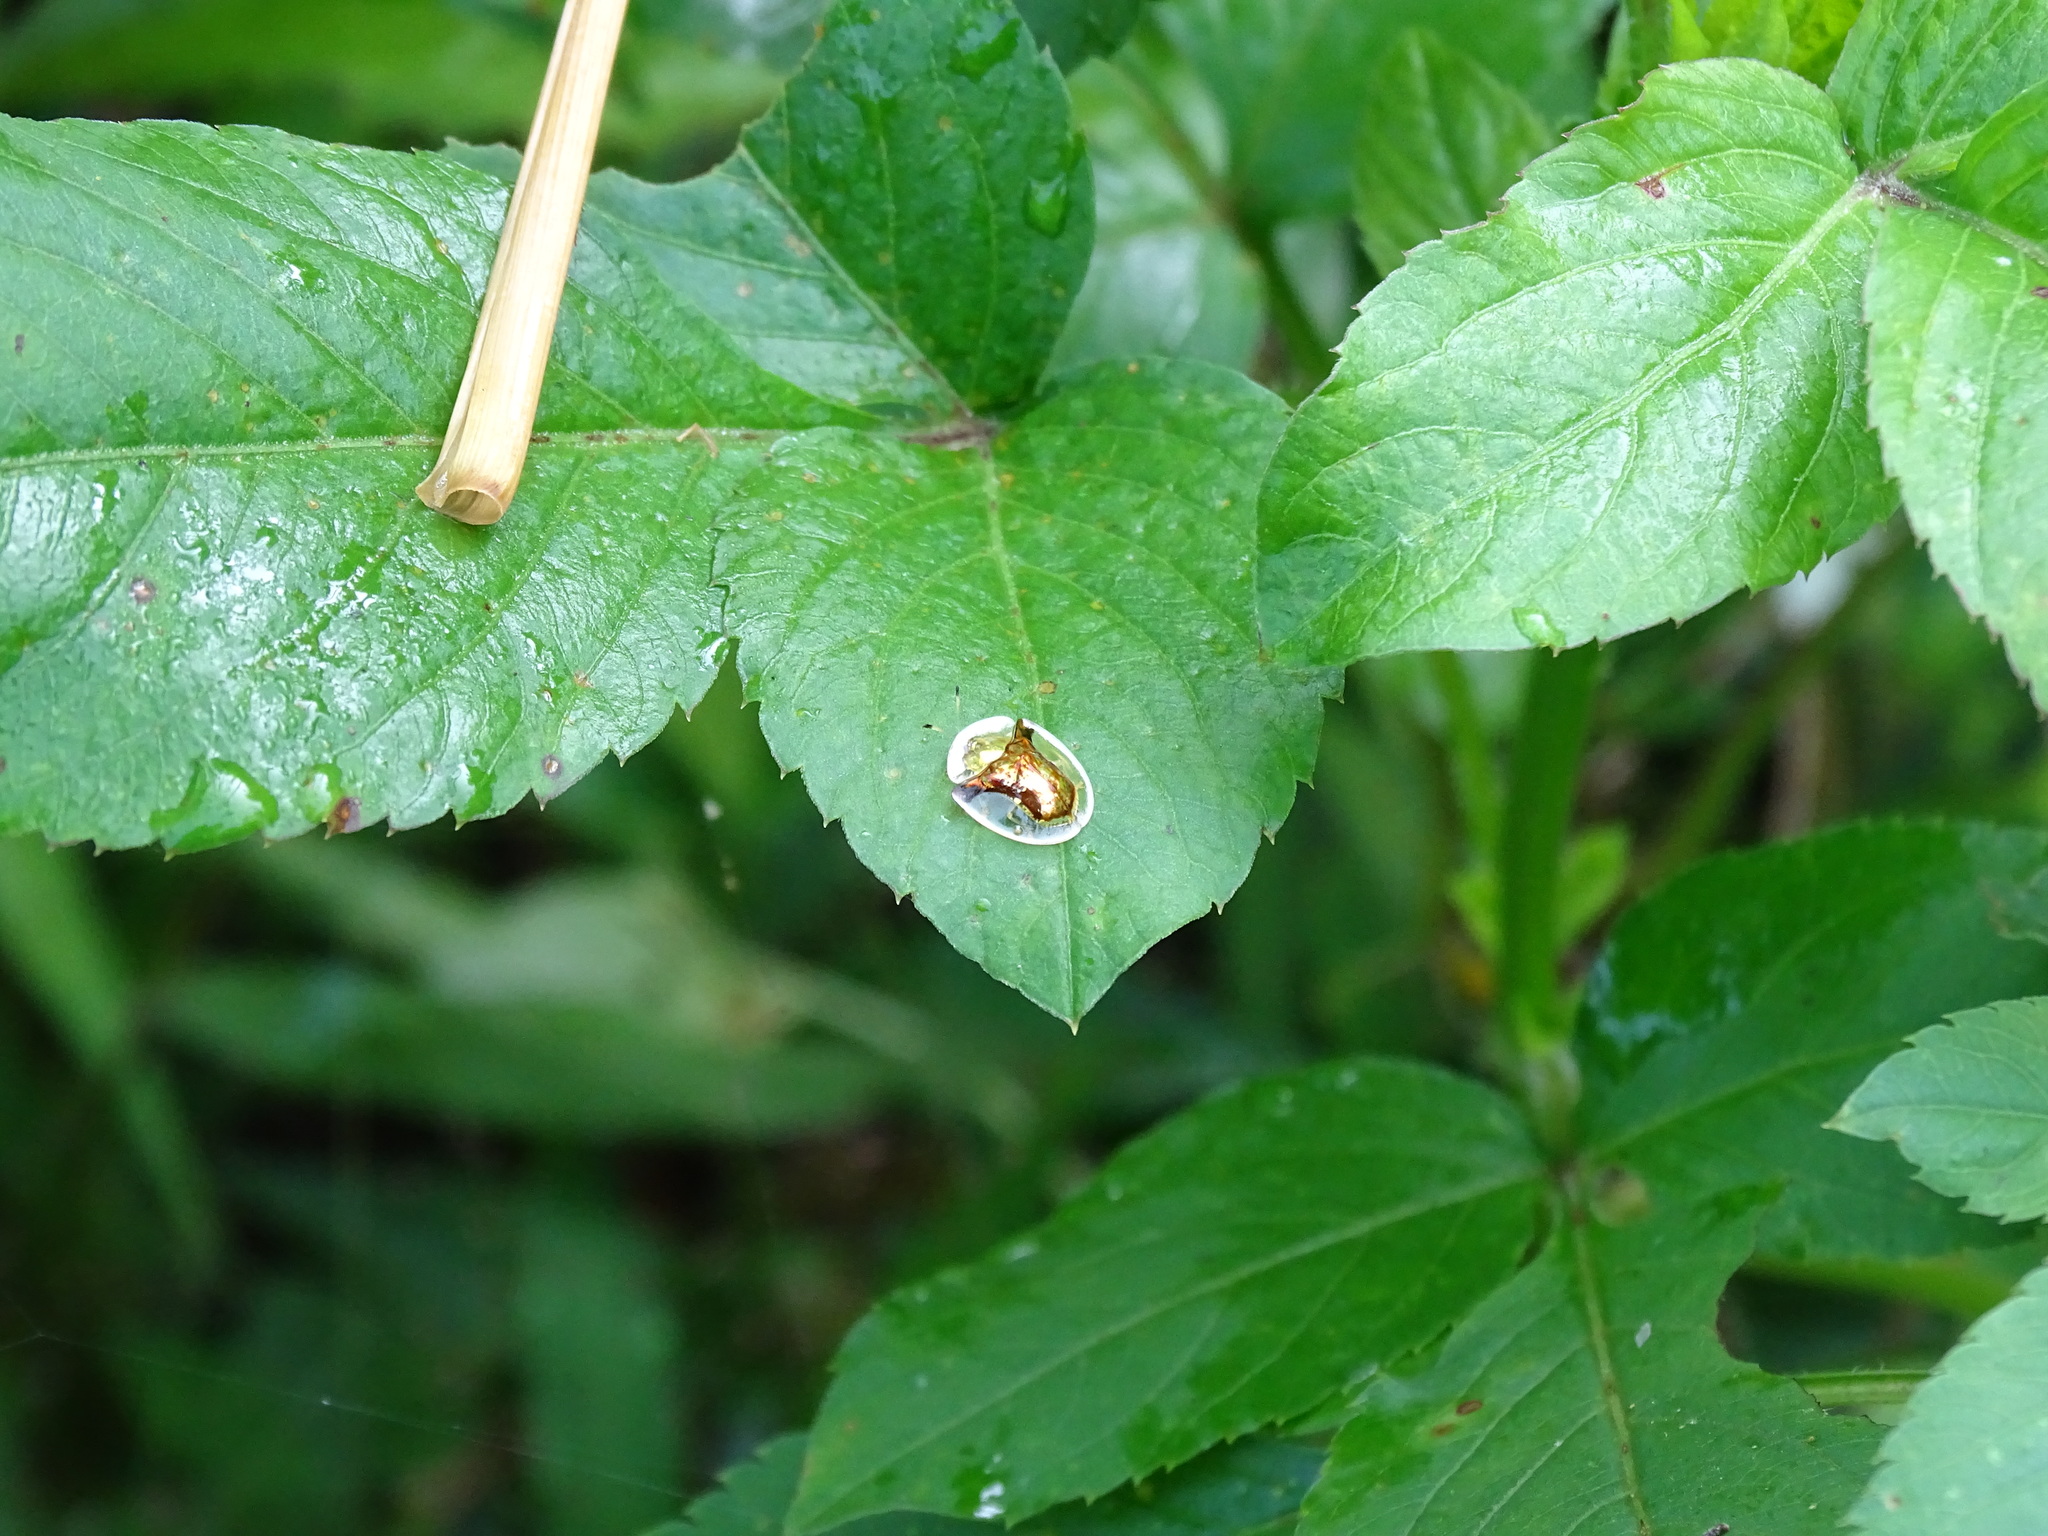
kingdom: Animalia
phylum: Arthropoda
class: Insecta
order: Coleoptera
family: Chrysomelidae
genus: Aspidimorpha
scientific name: Aspidimorpha furcata
